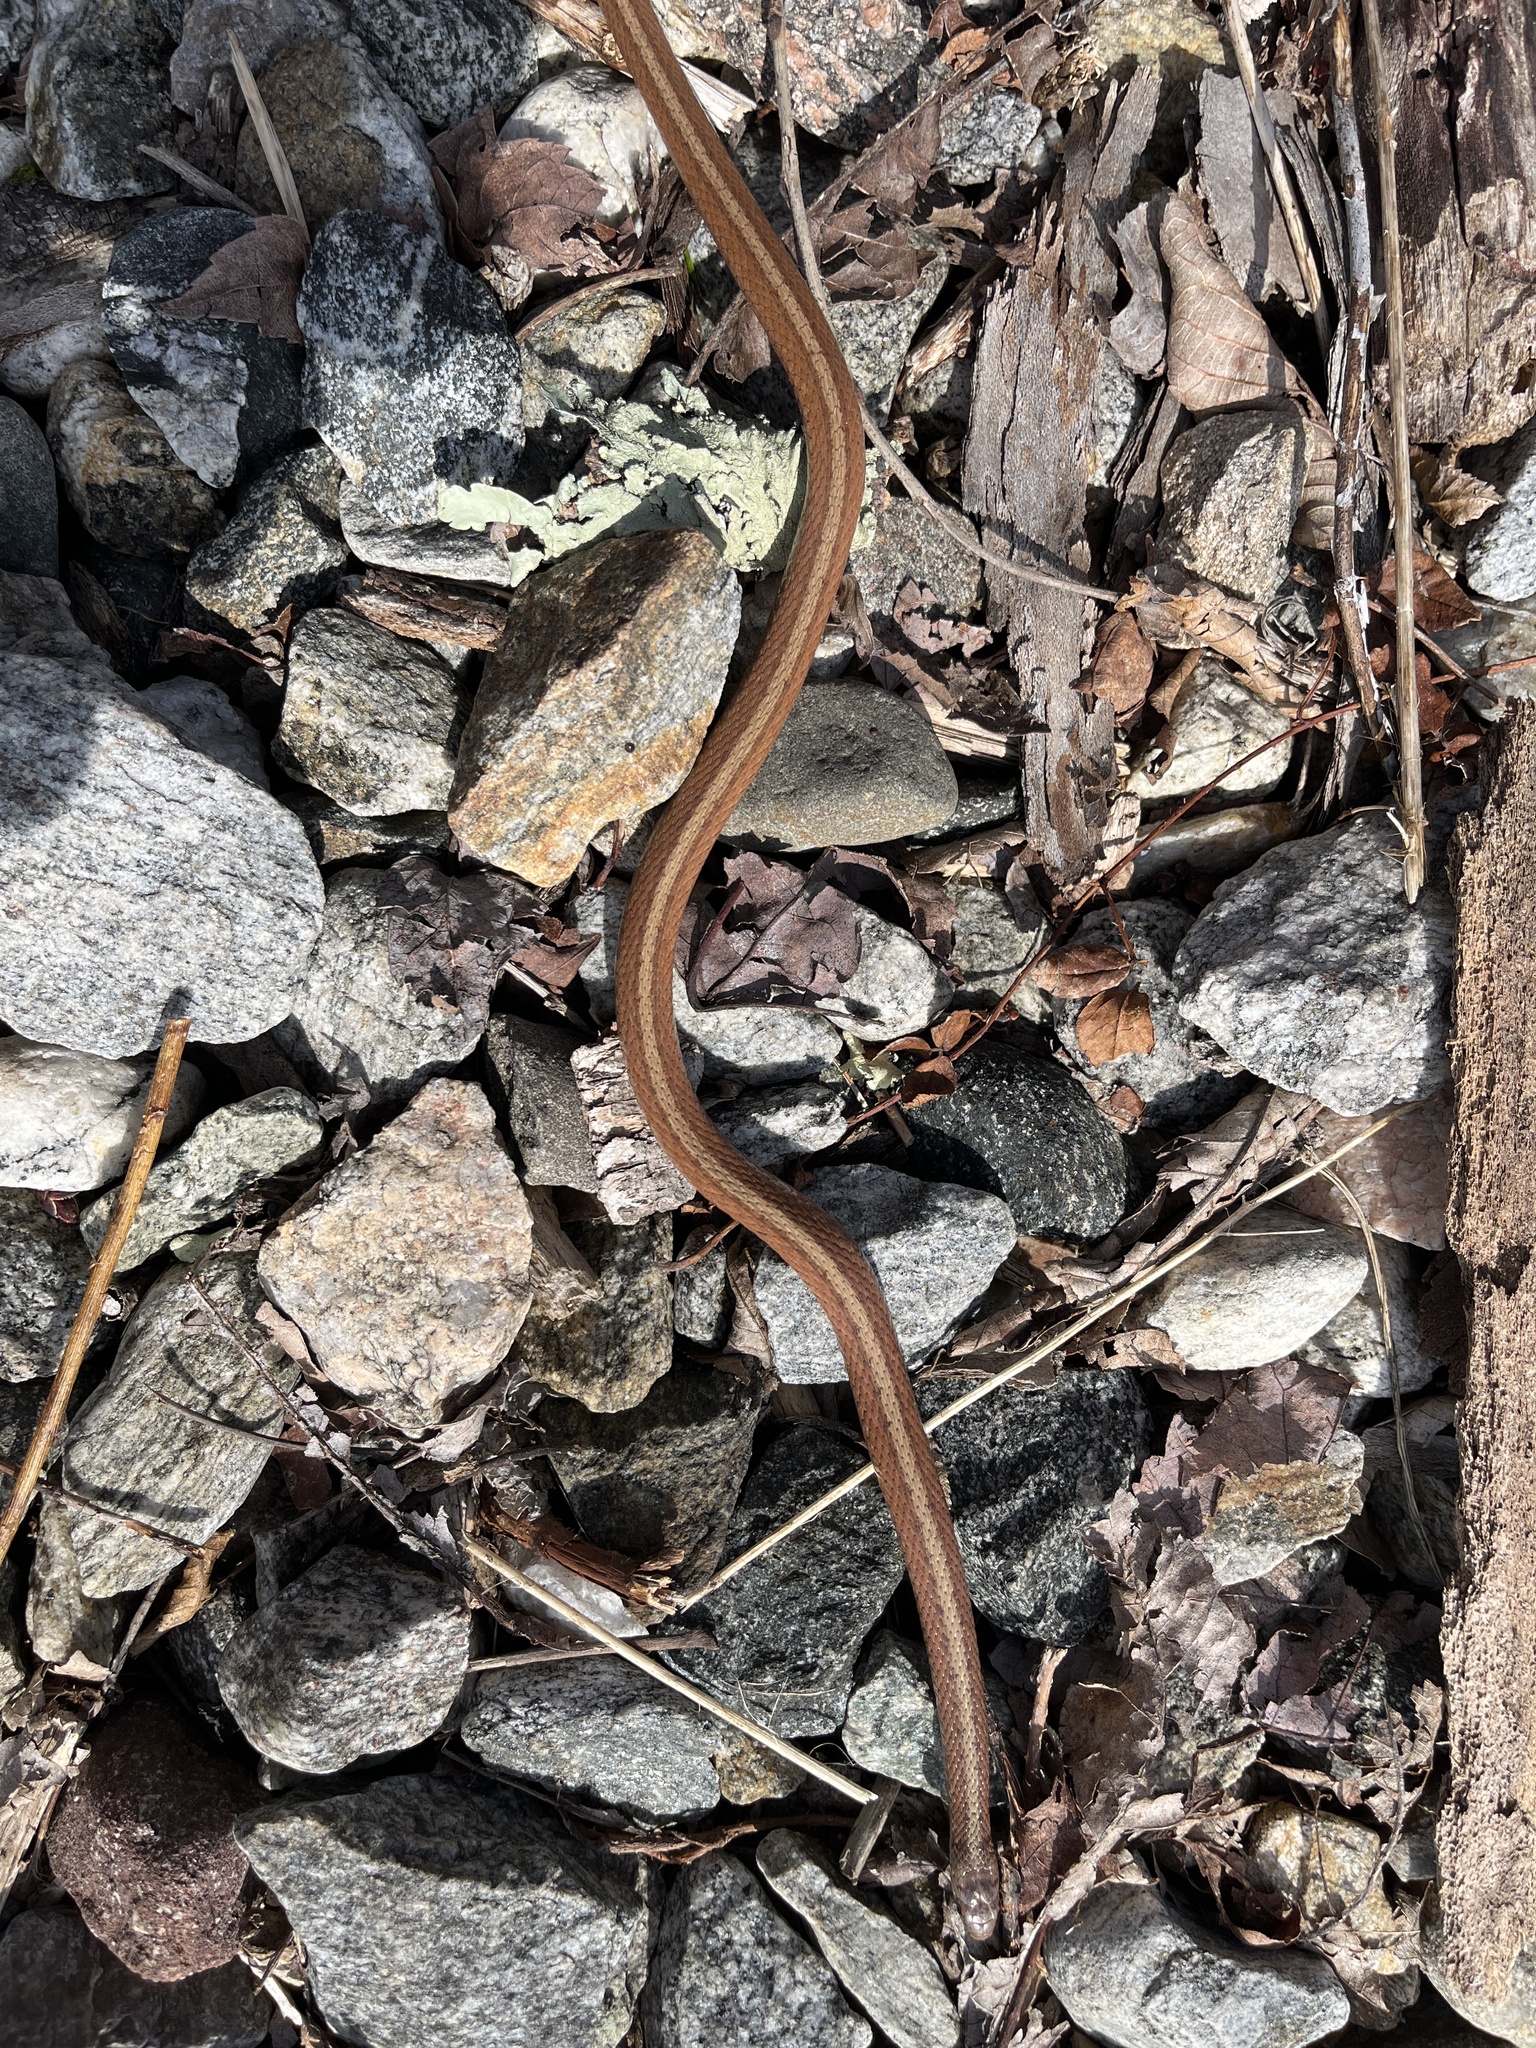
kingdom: Animalia
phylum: Chordata
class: Squamata
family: Colubridae
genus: Storeria
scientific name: Storeria dekayi
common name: (dekay’s) brown snake
